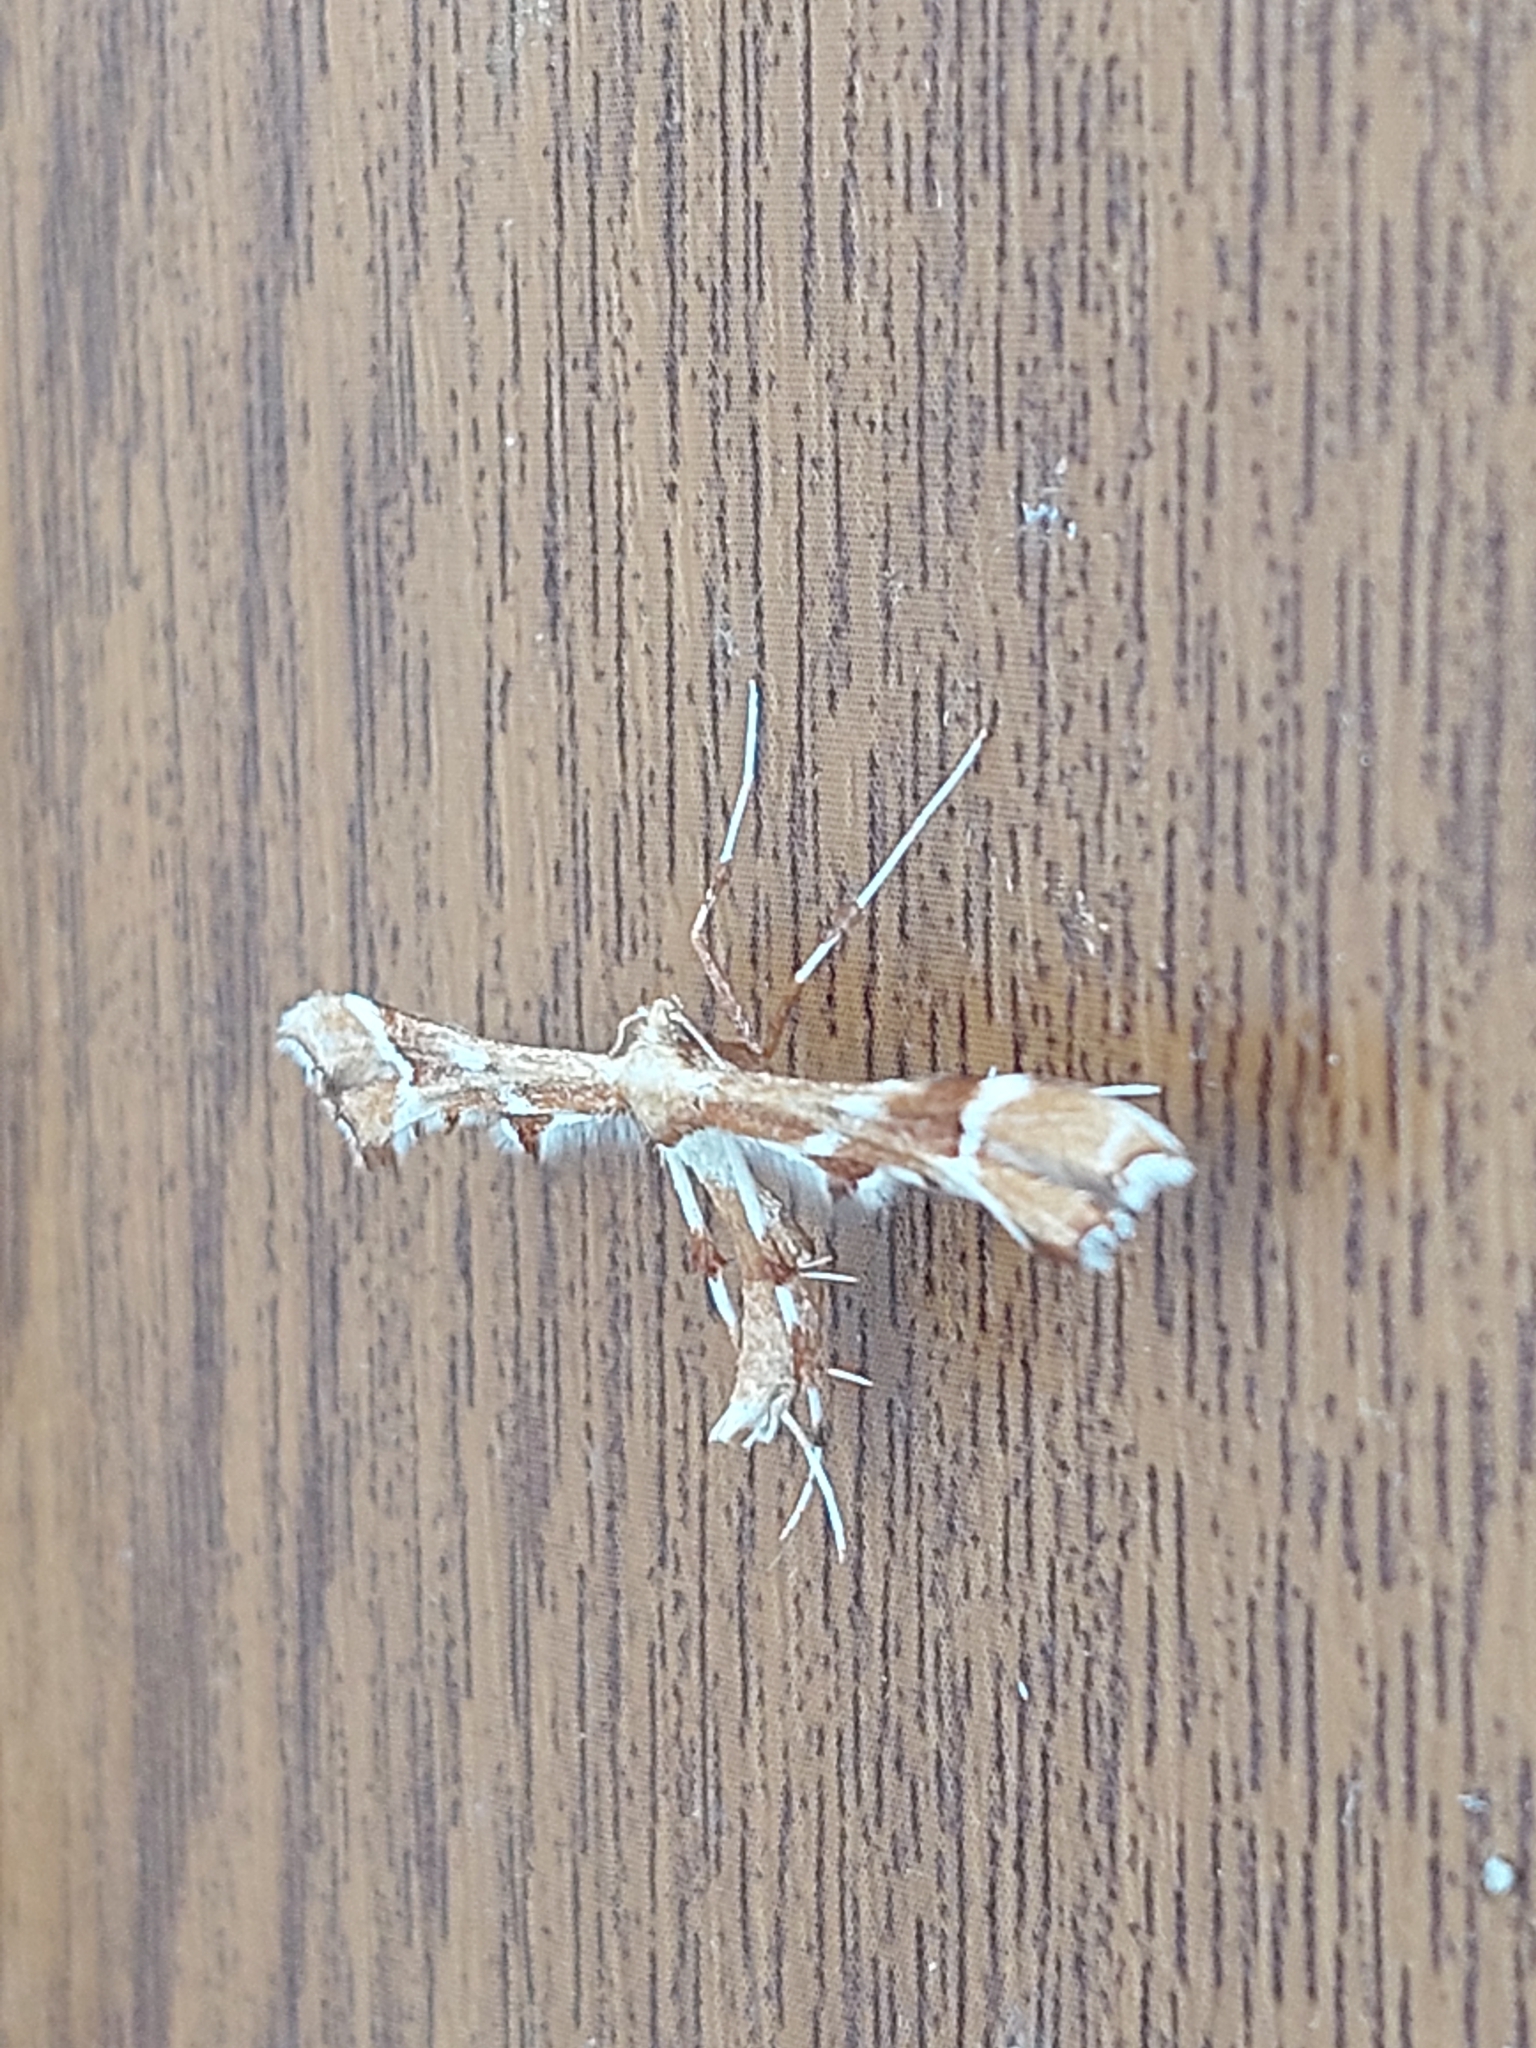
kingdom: Animalia
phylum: Arthropoda
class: Insecta
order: Lepidoptera
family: Pterophoridae
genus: Cnaemidophorus
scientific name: Cnaemidophorus rhododactyla
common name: Rose plume
